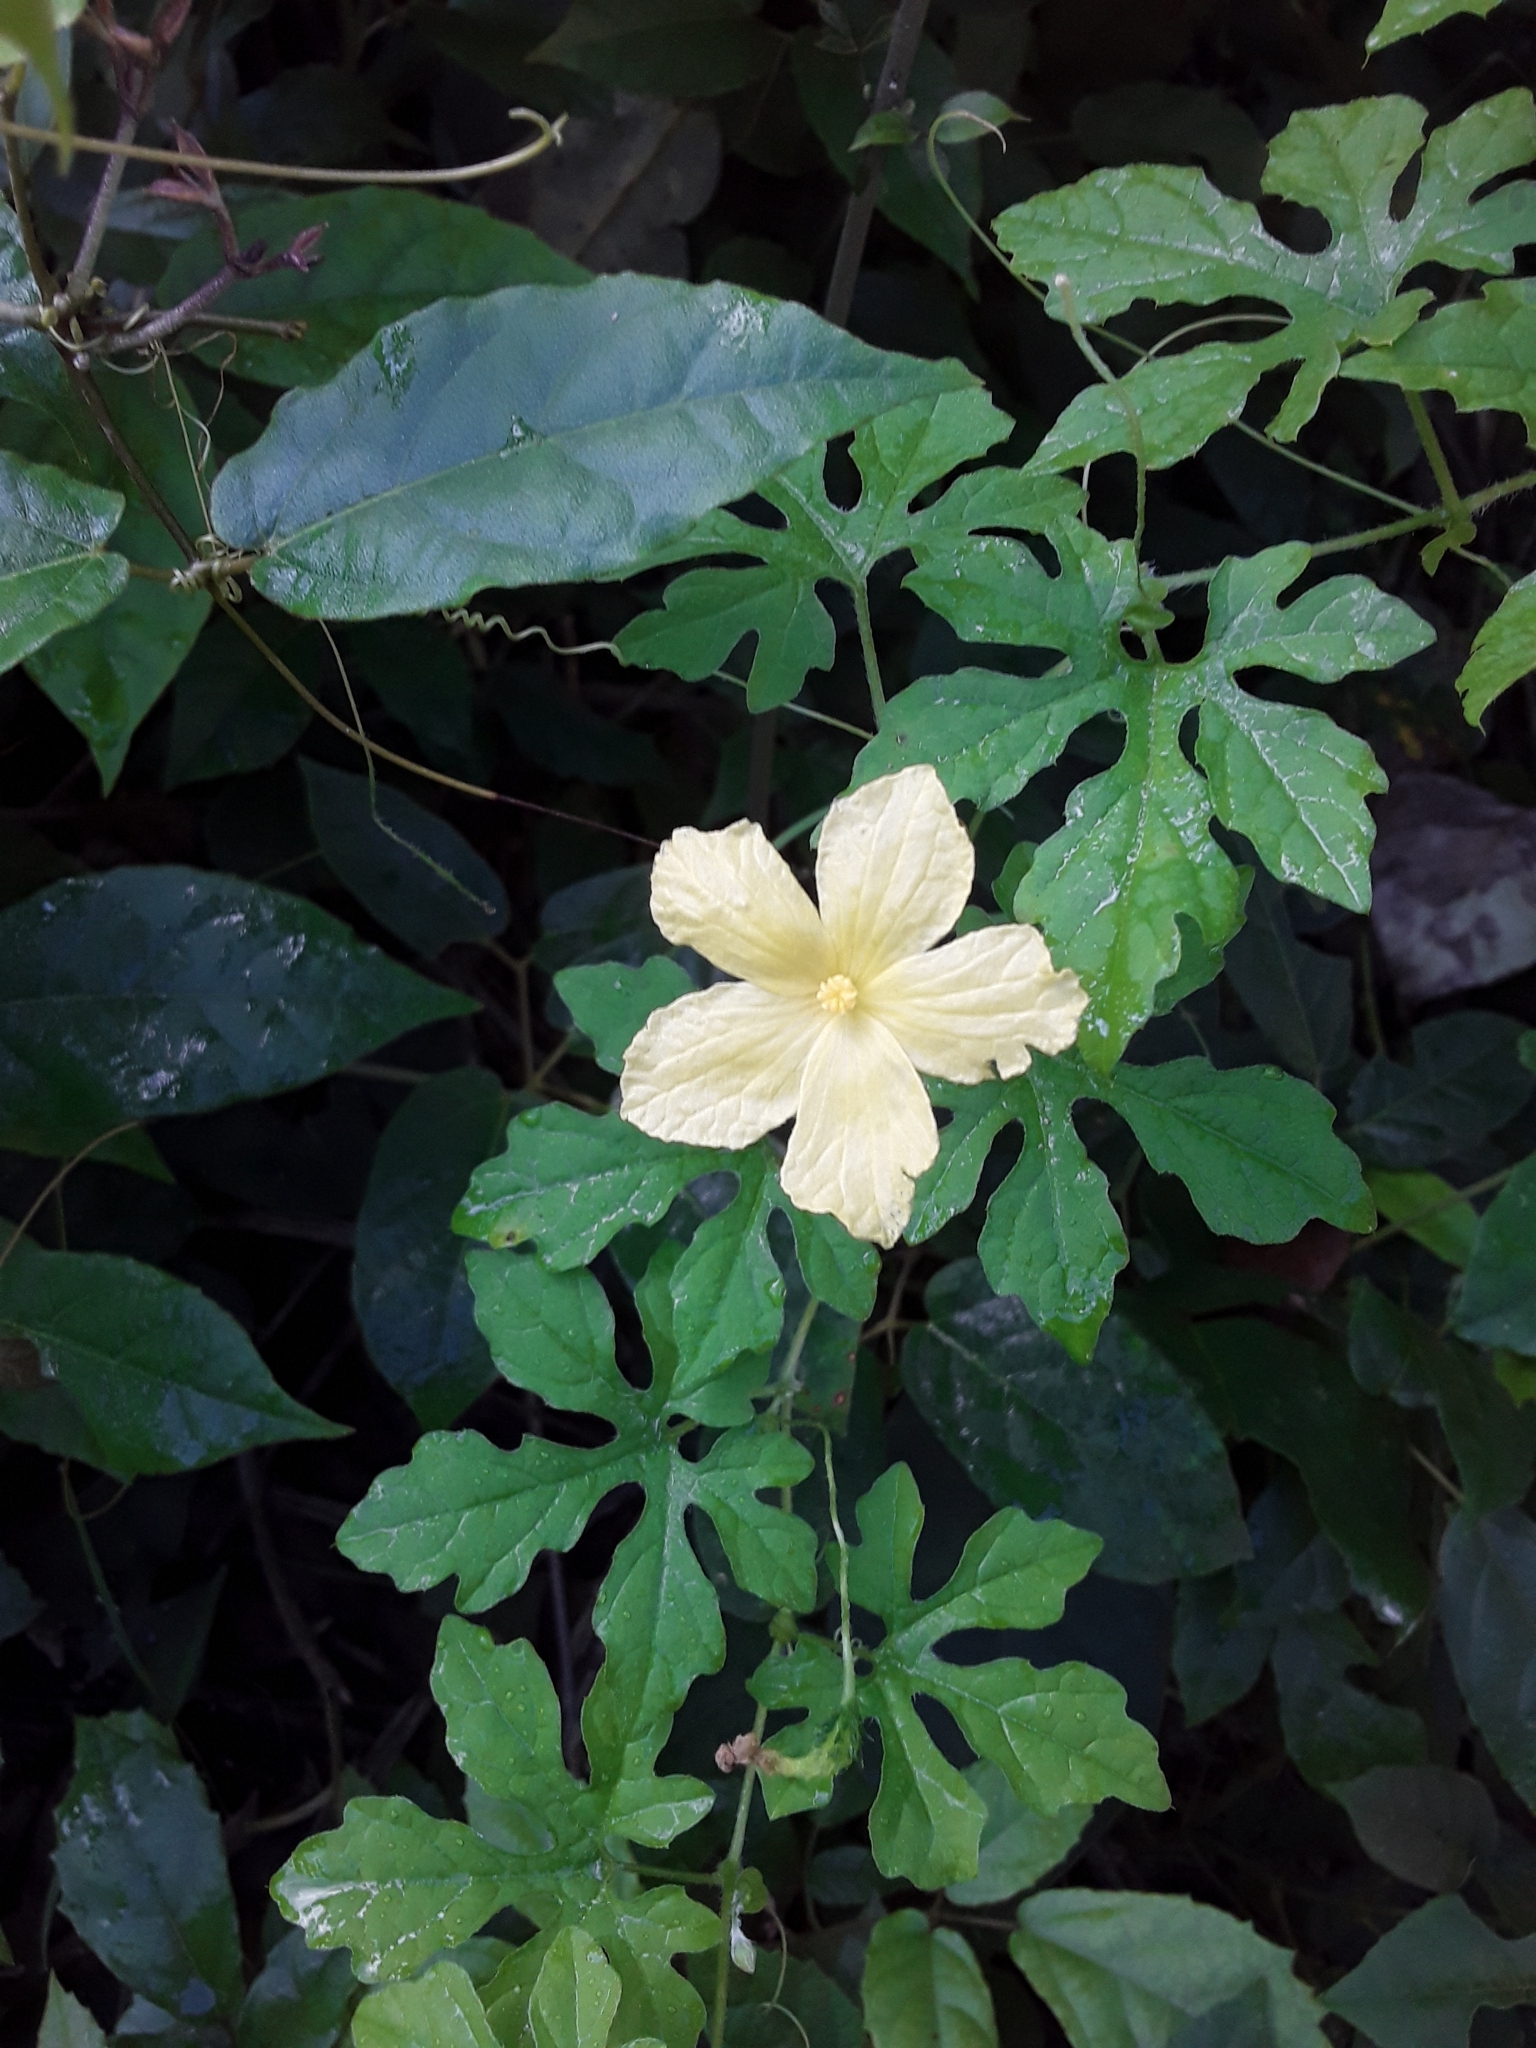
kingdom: Plantae
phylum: Tracheophyta
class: Magnoliopsida
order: Cucurbitales
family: Cucurbitaceae
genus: Momordica
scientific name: Momordica charantia
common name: Balsampear
